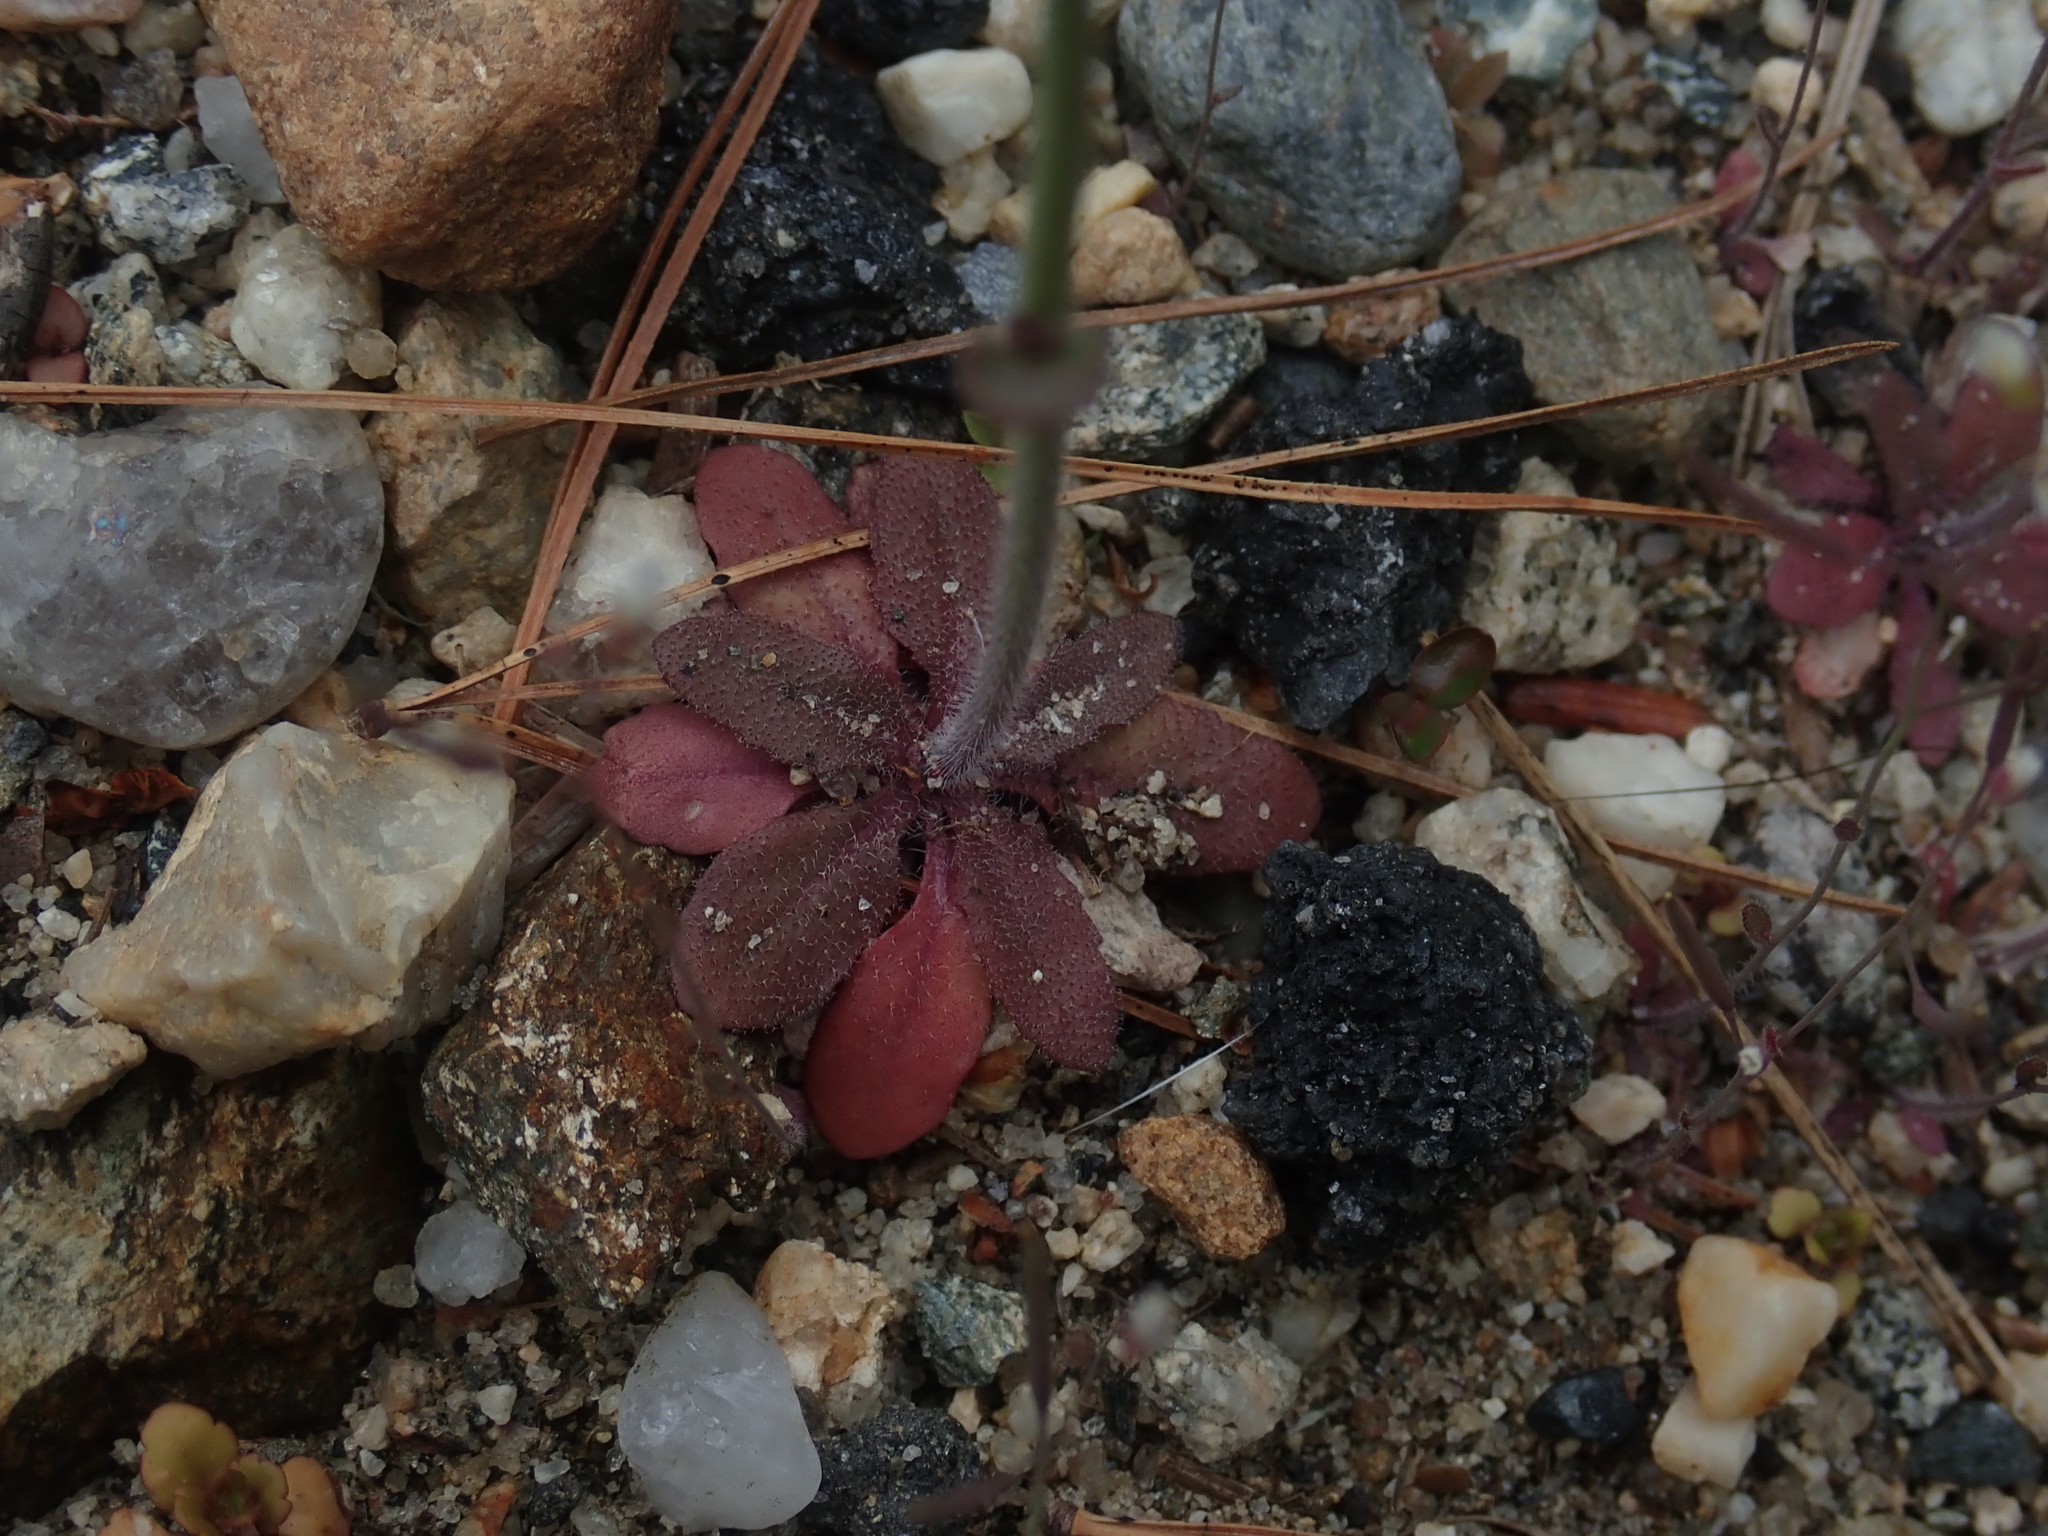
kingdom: Plantae
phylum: Tracheophyta
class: Magnoliopsida
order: Brassicales
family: Brassicaceae
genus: Arabidopsis
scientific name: Arabidopsis thaliana
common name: Thale cress
